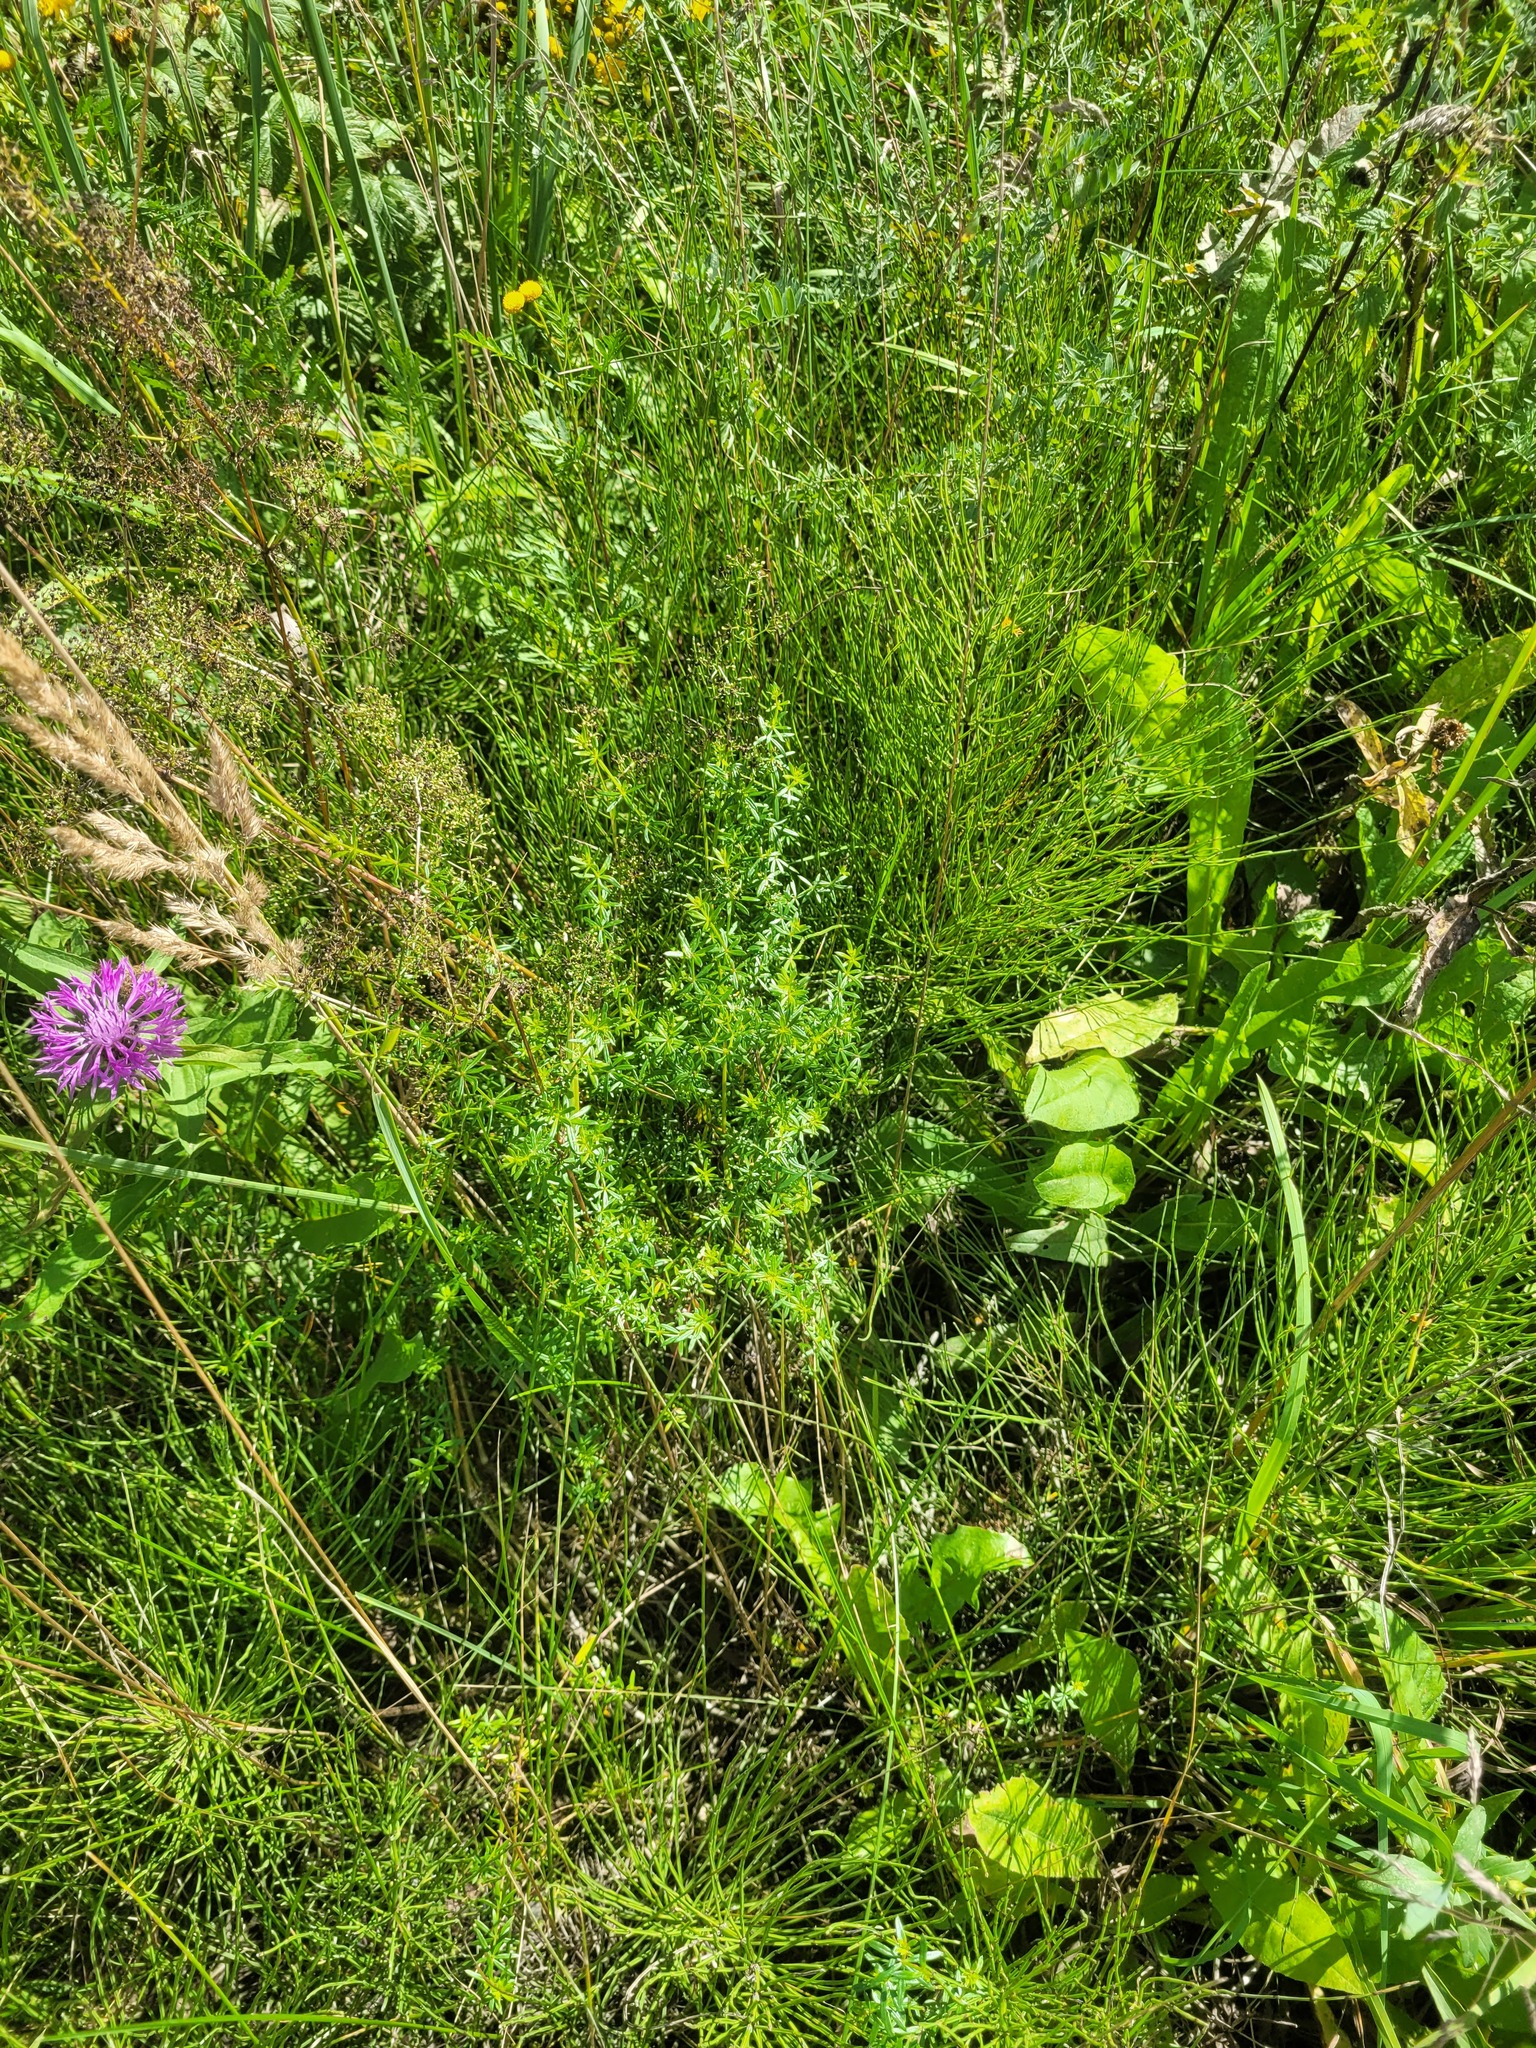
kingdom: Plantae
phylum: Tracheophyta
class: Magnoliopsida
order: Gentianales
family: Rubiaceae
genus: Galium
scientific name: Galium mollugo
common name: Hedge bedstraw
